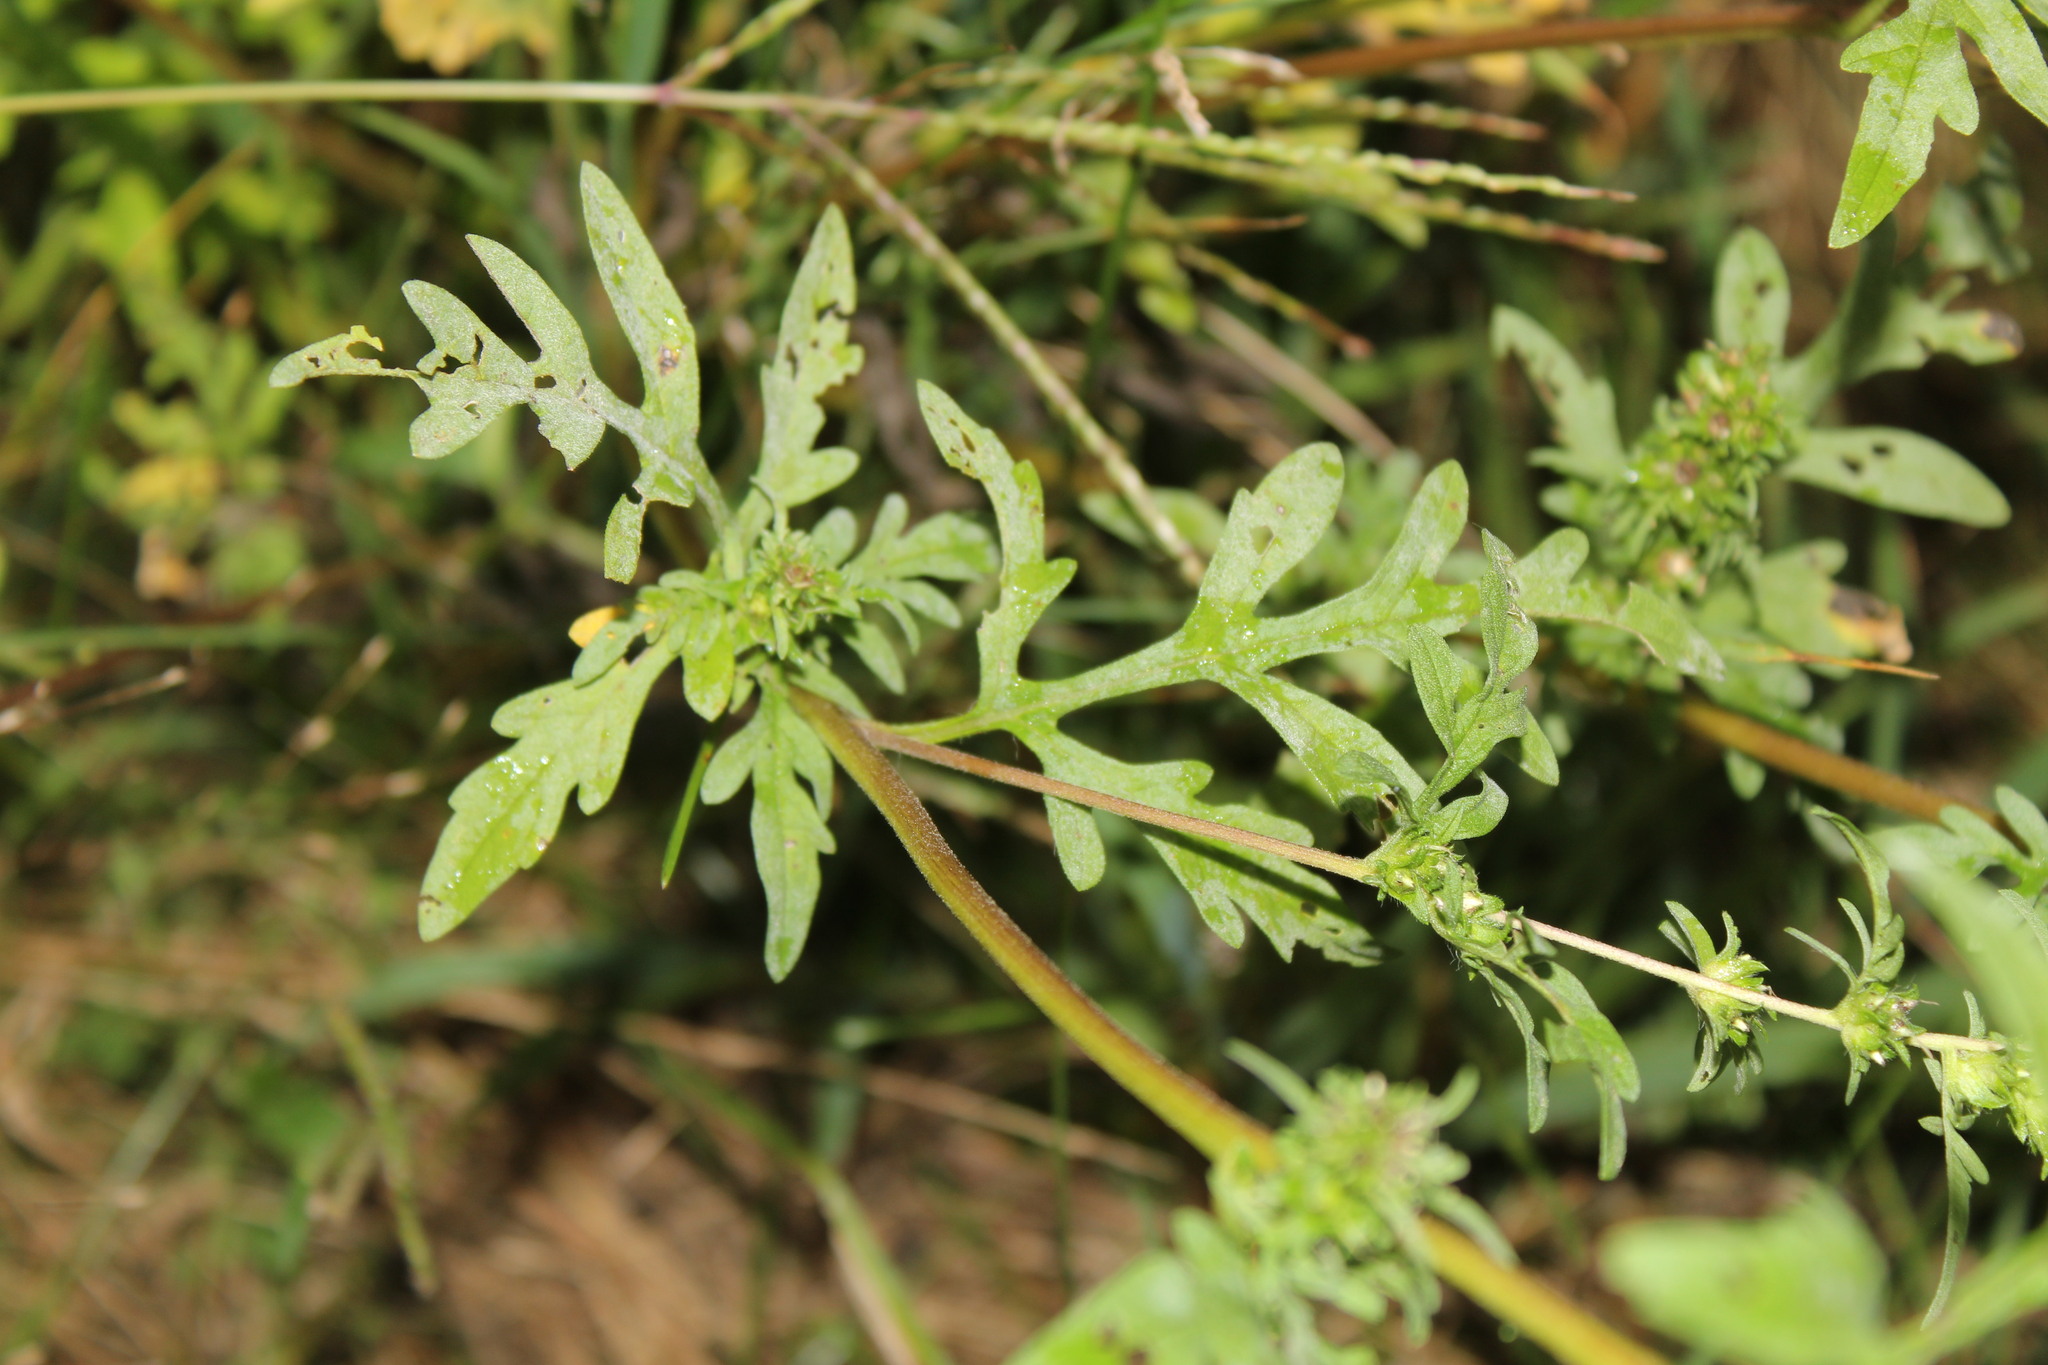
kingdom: Plantae
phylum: Tracheophyta
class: Magnoliopsida
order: Asterales
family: Asteraceae
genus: Ambrosia
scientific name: Ambrosia artemisiifolia
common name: Annual ragweed
